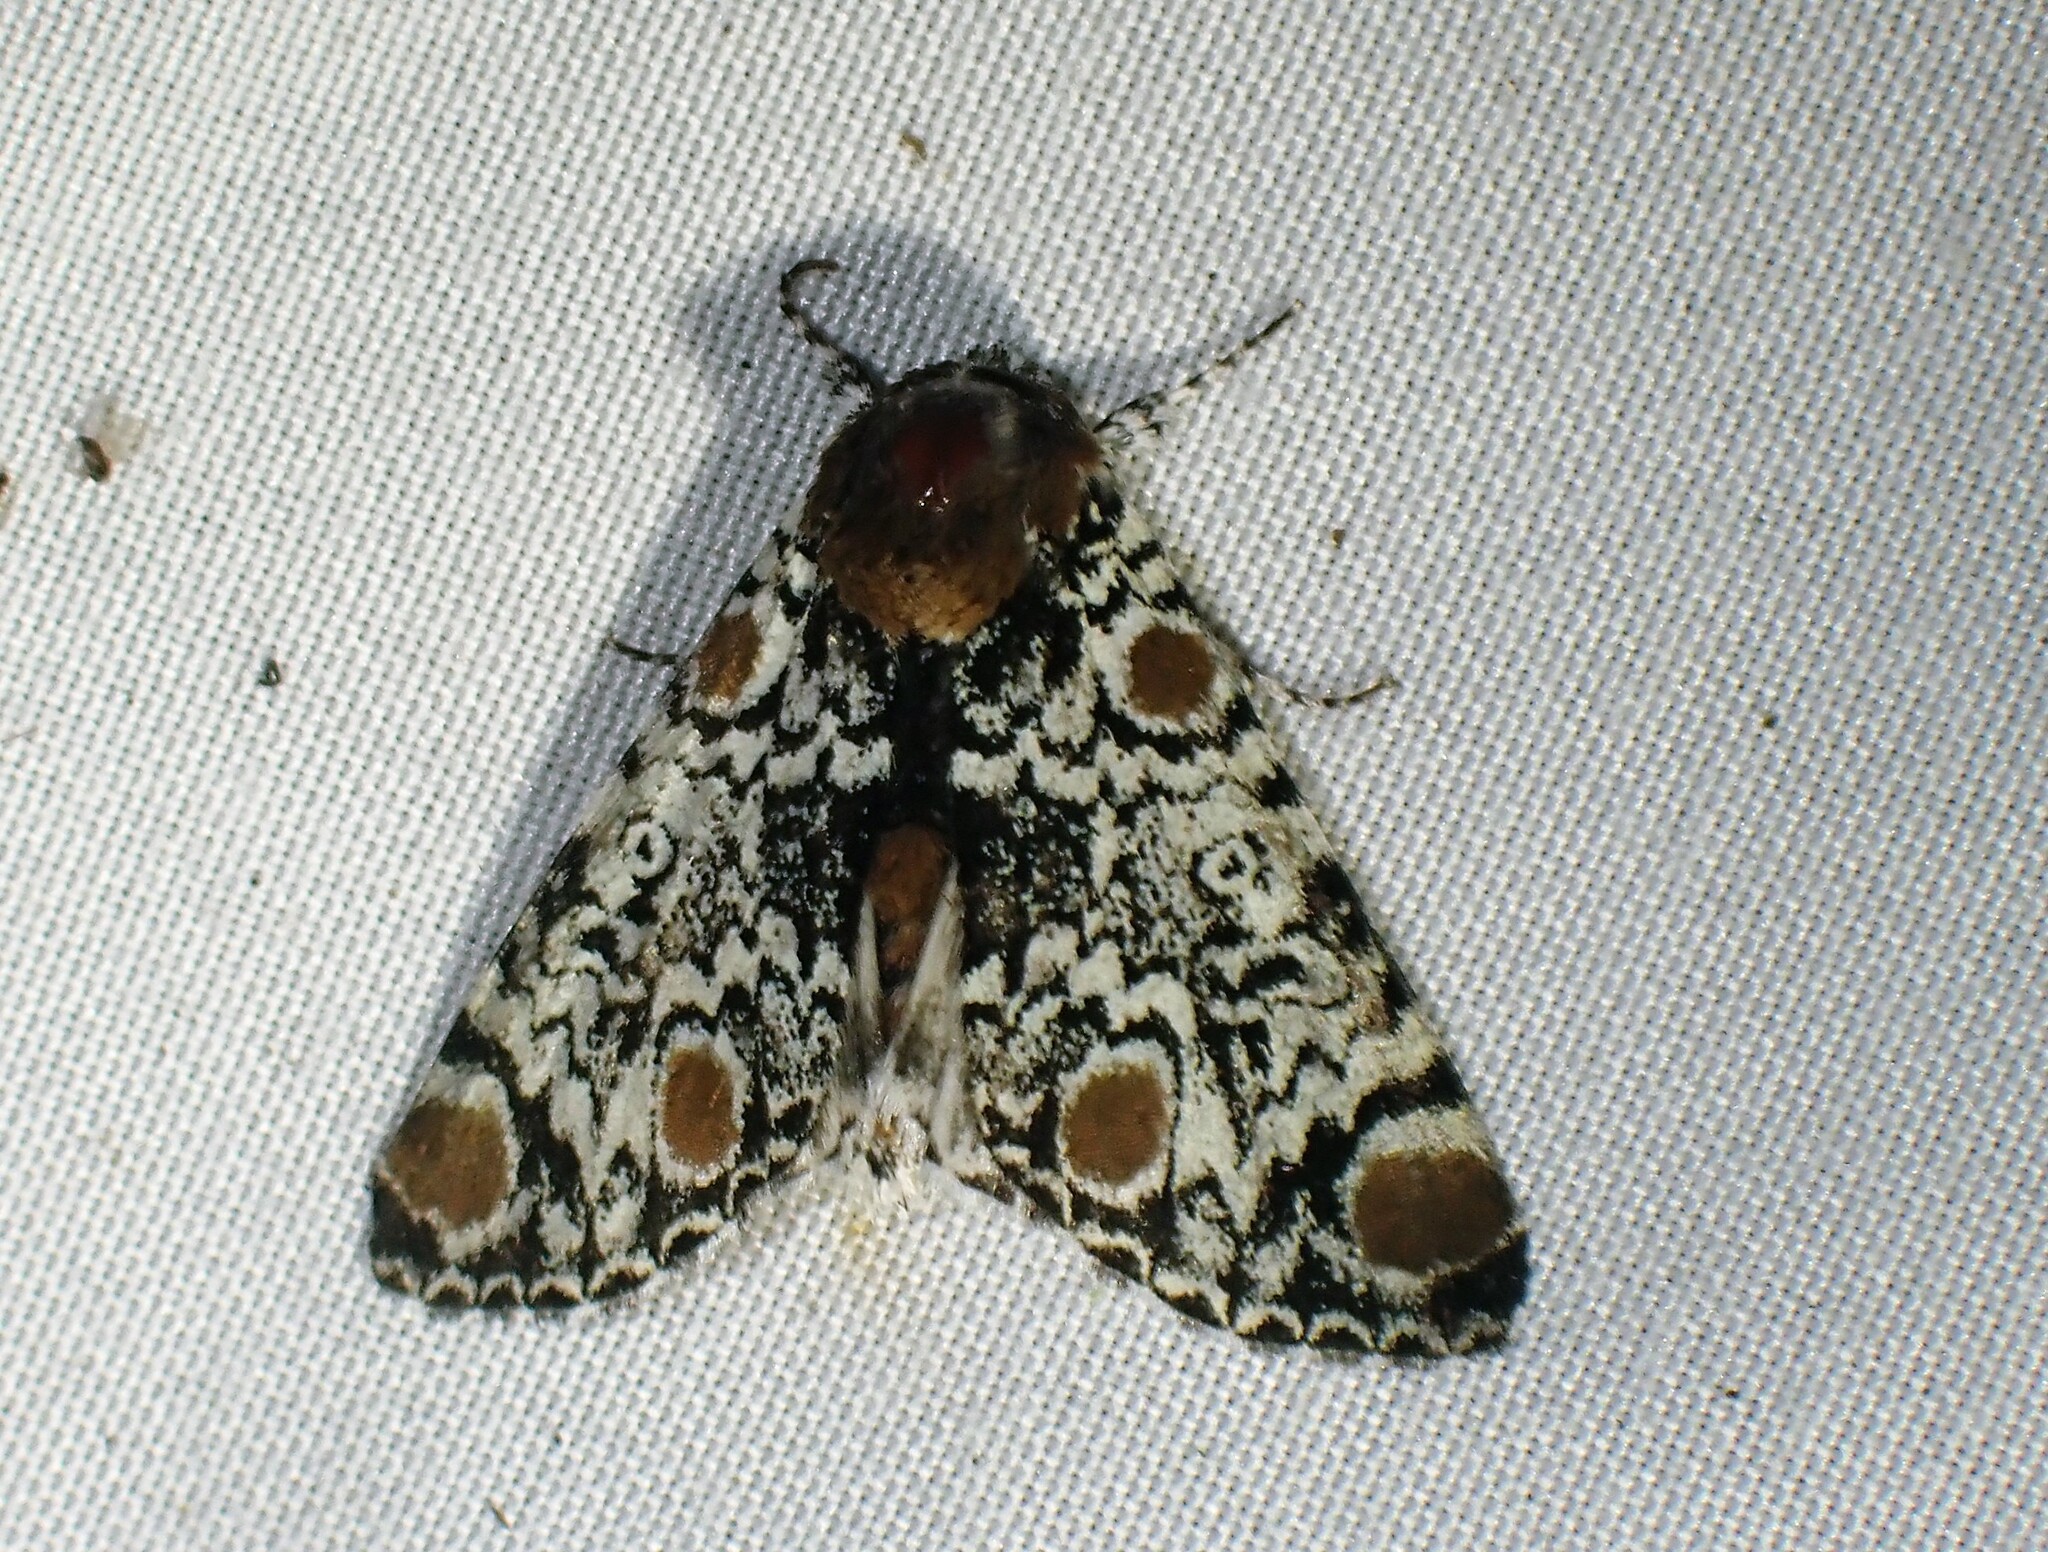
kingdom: Animalia
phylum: Arthropoda
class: Insecta
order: Lepidoptera
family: Noctuidae
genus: Harrisimemna
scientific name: Harrisimemna trisignata
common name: Harris threespot
